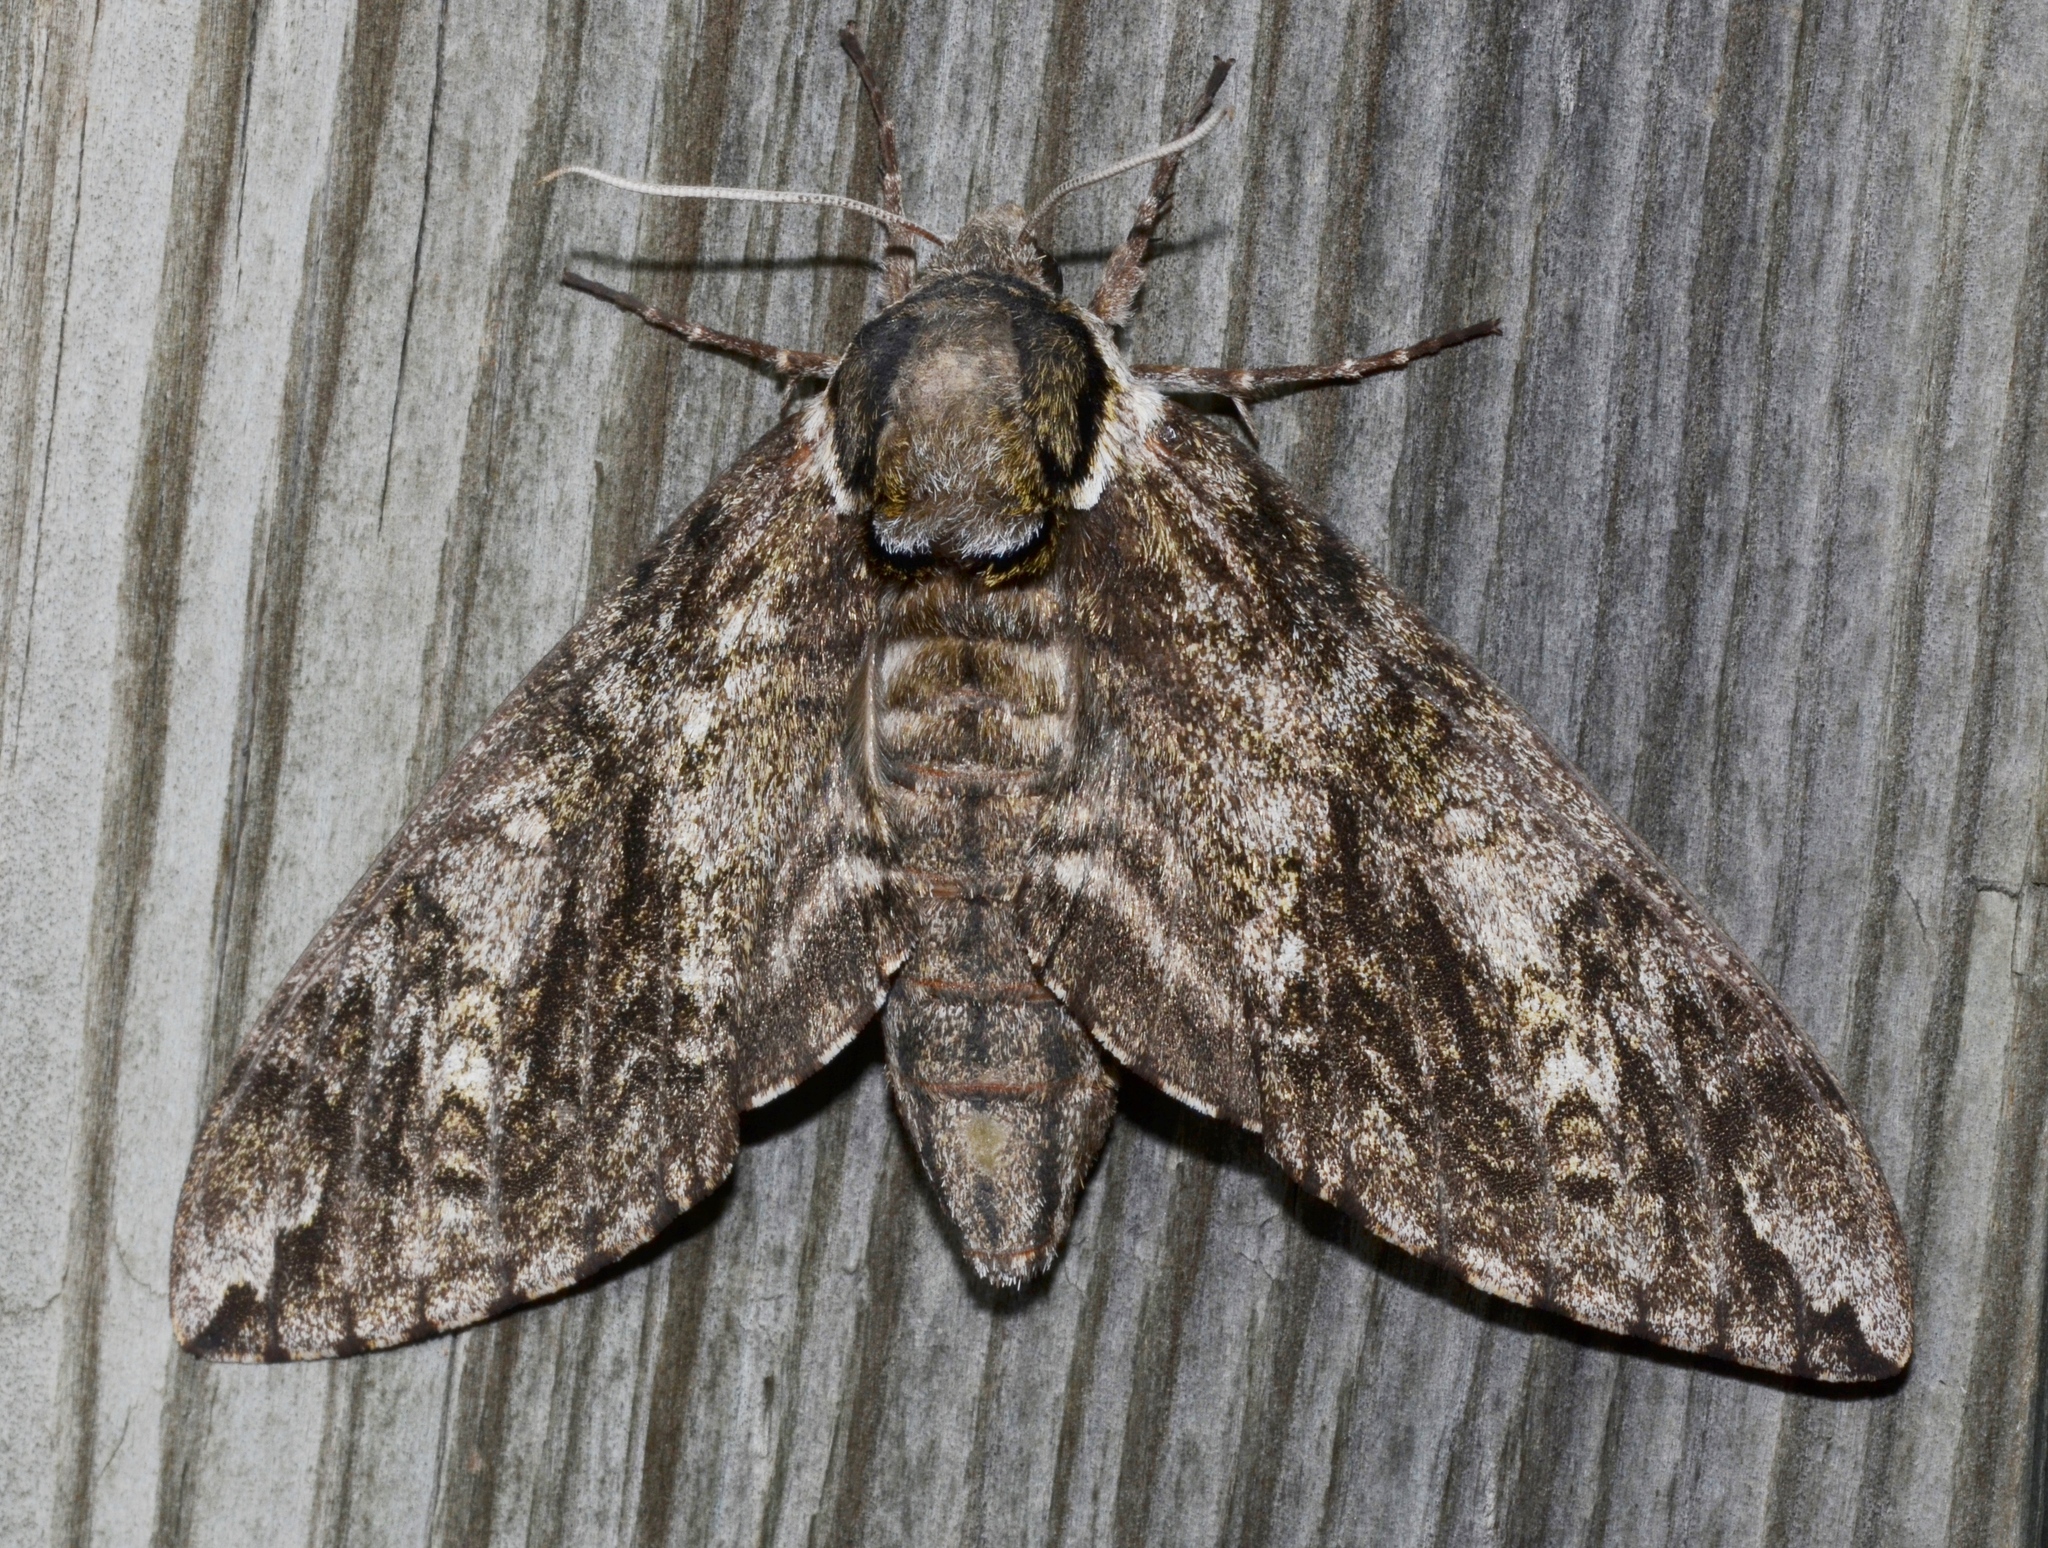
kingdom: Animalia
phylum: Arthropoda
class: Insecta
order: Lepidoptera
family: Sphingidae
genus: Ceratomia
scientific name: Ceratomia undulosa
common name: Waved sphinx
